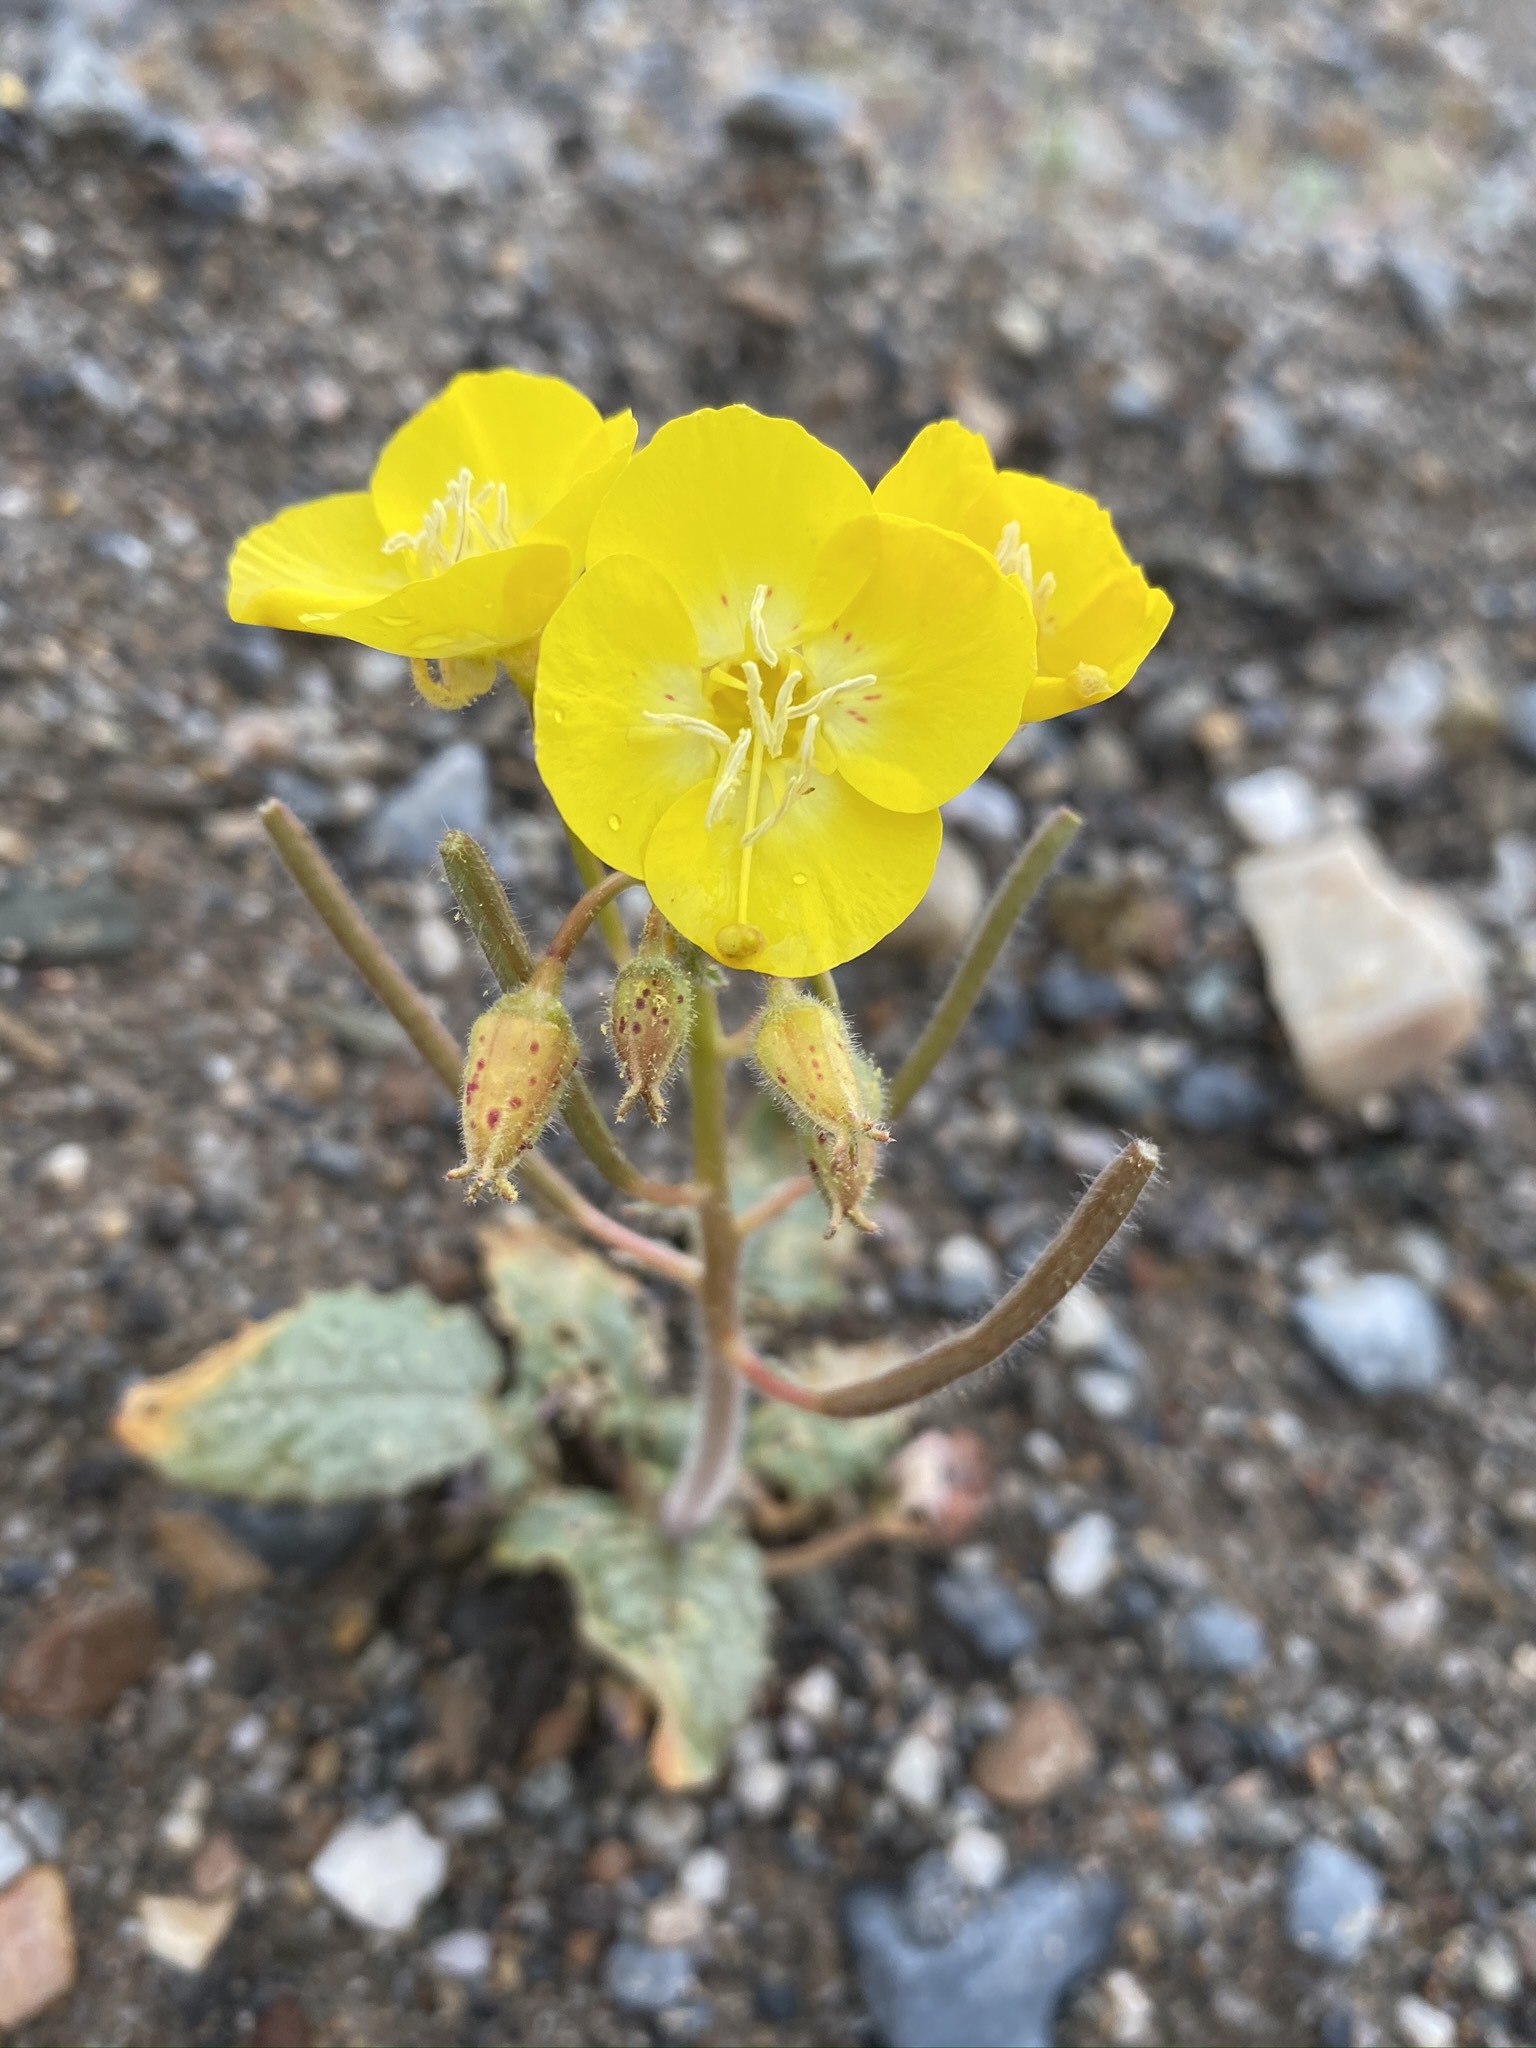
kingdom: Plantae
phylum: Tracheophyta
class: Magnoliopsida
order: Myrtales
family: Onagraceae
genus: Chylismia
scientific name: Chylismia brevipes
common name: Yellow cups
